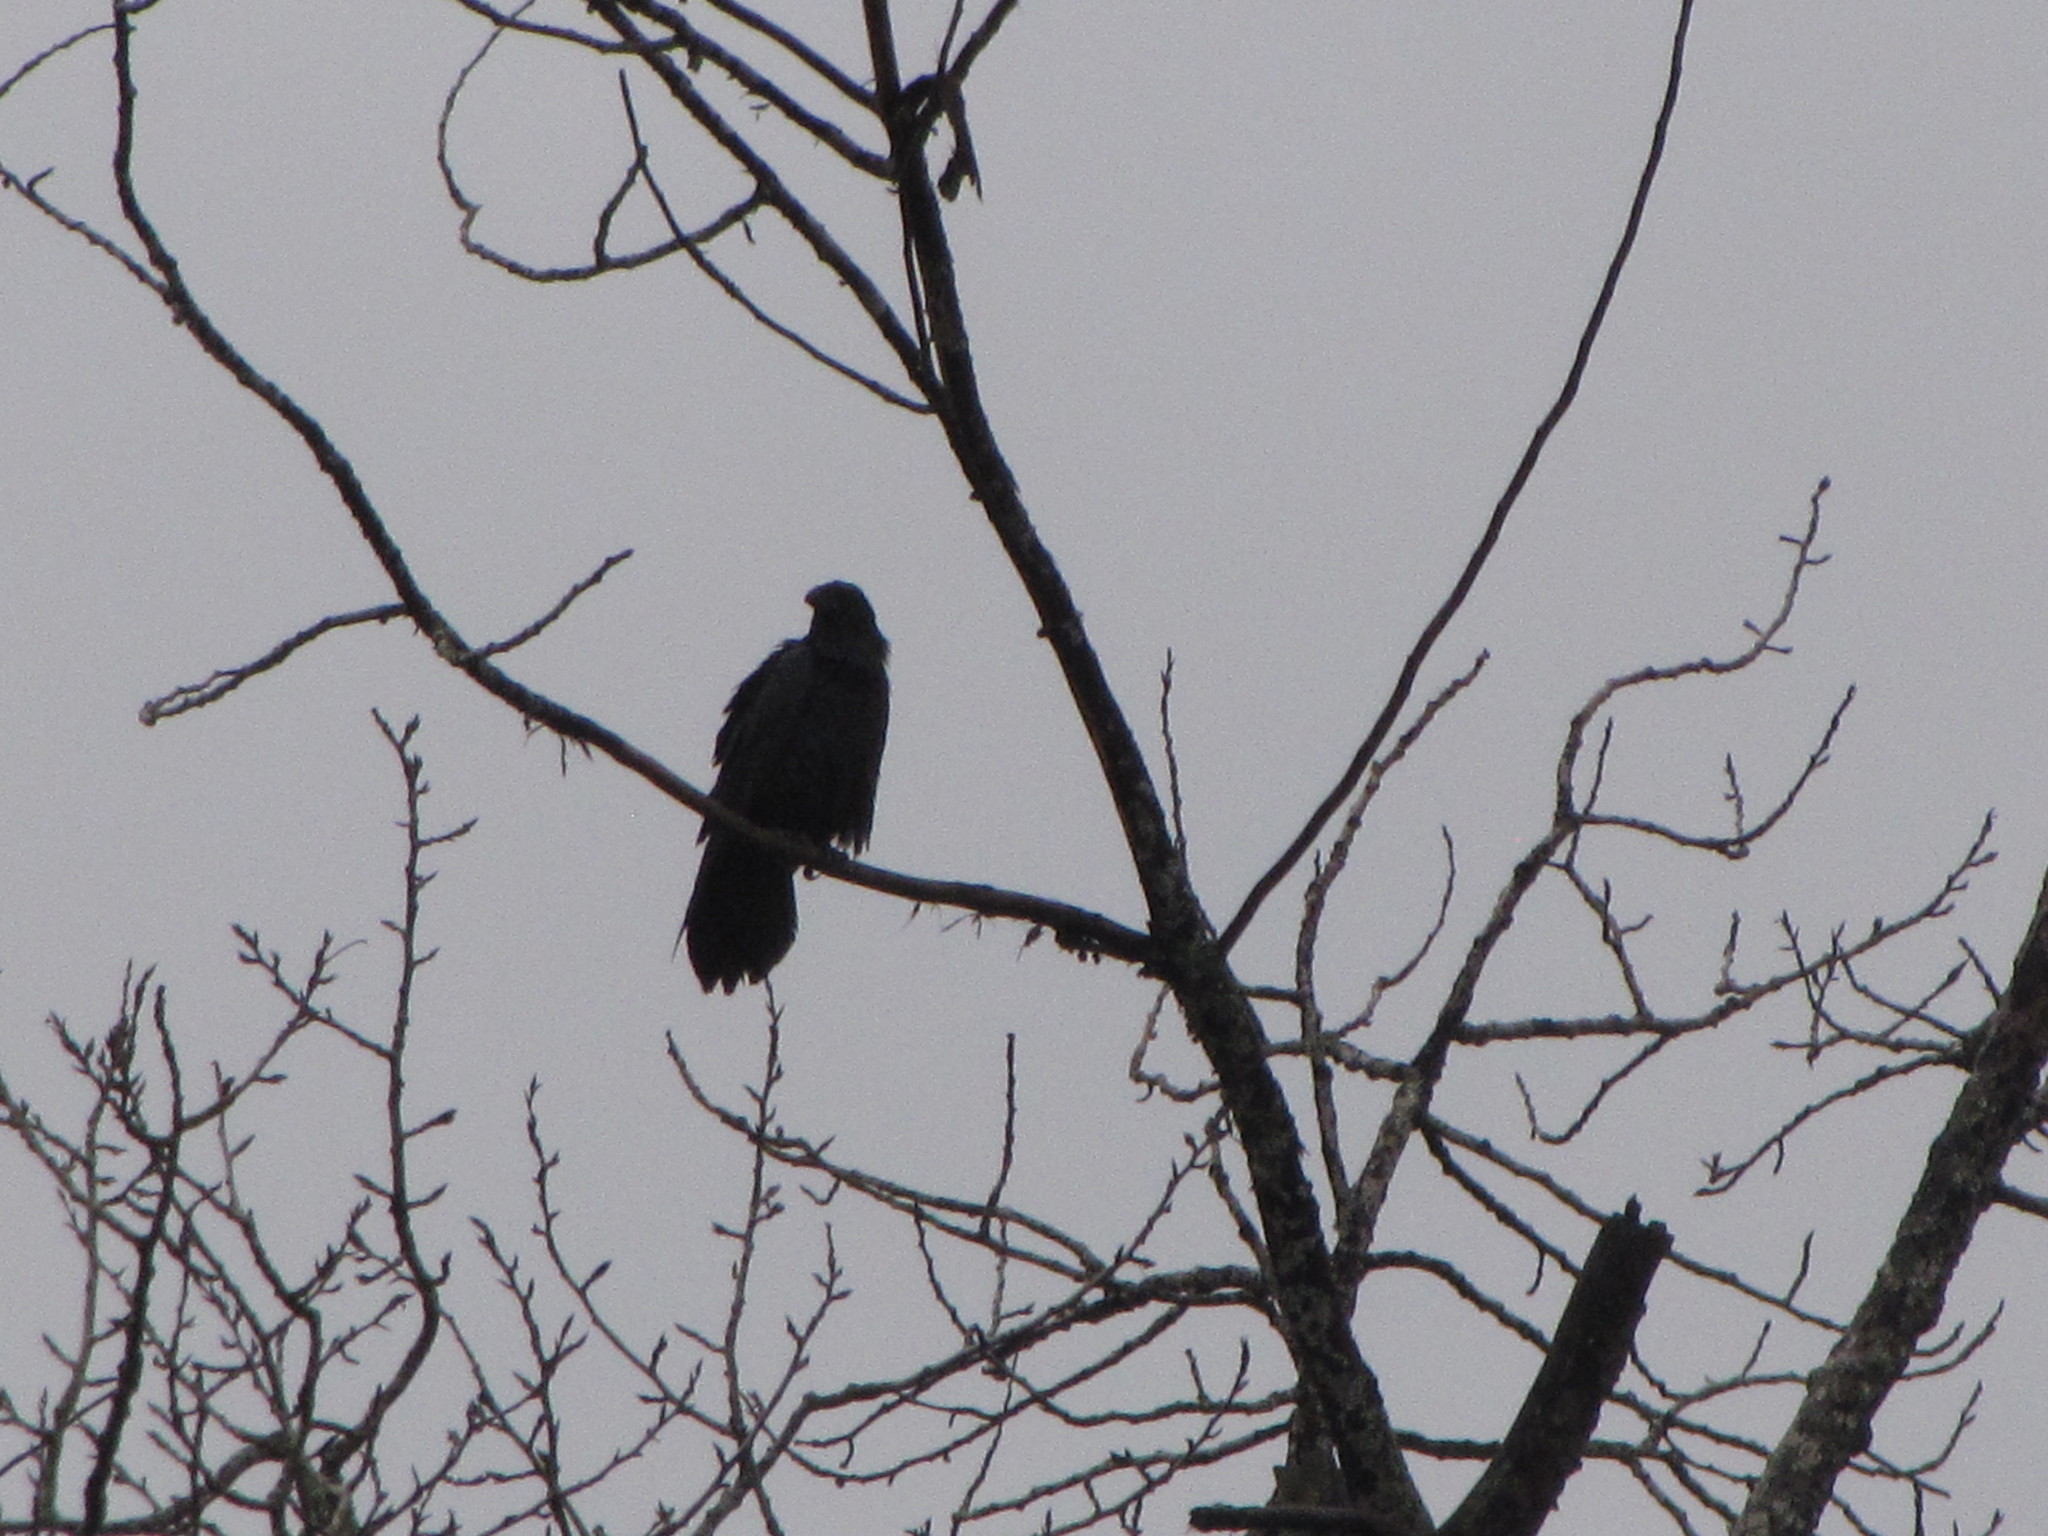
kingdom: Animalia
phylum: Chordata
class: Aves
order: Passeriformes
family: Corvidae
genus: Corvus
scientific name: Corvus corax
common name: Common raven
